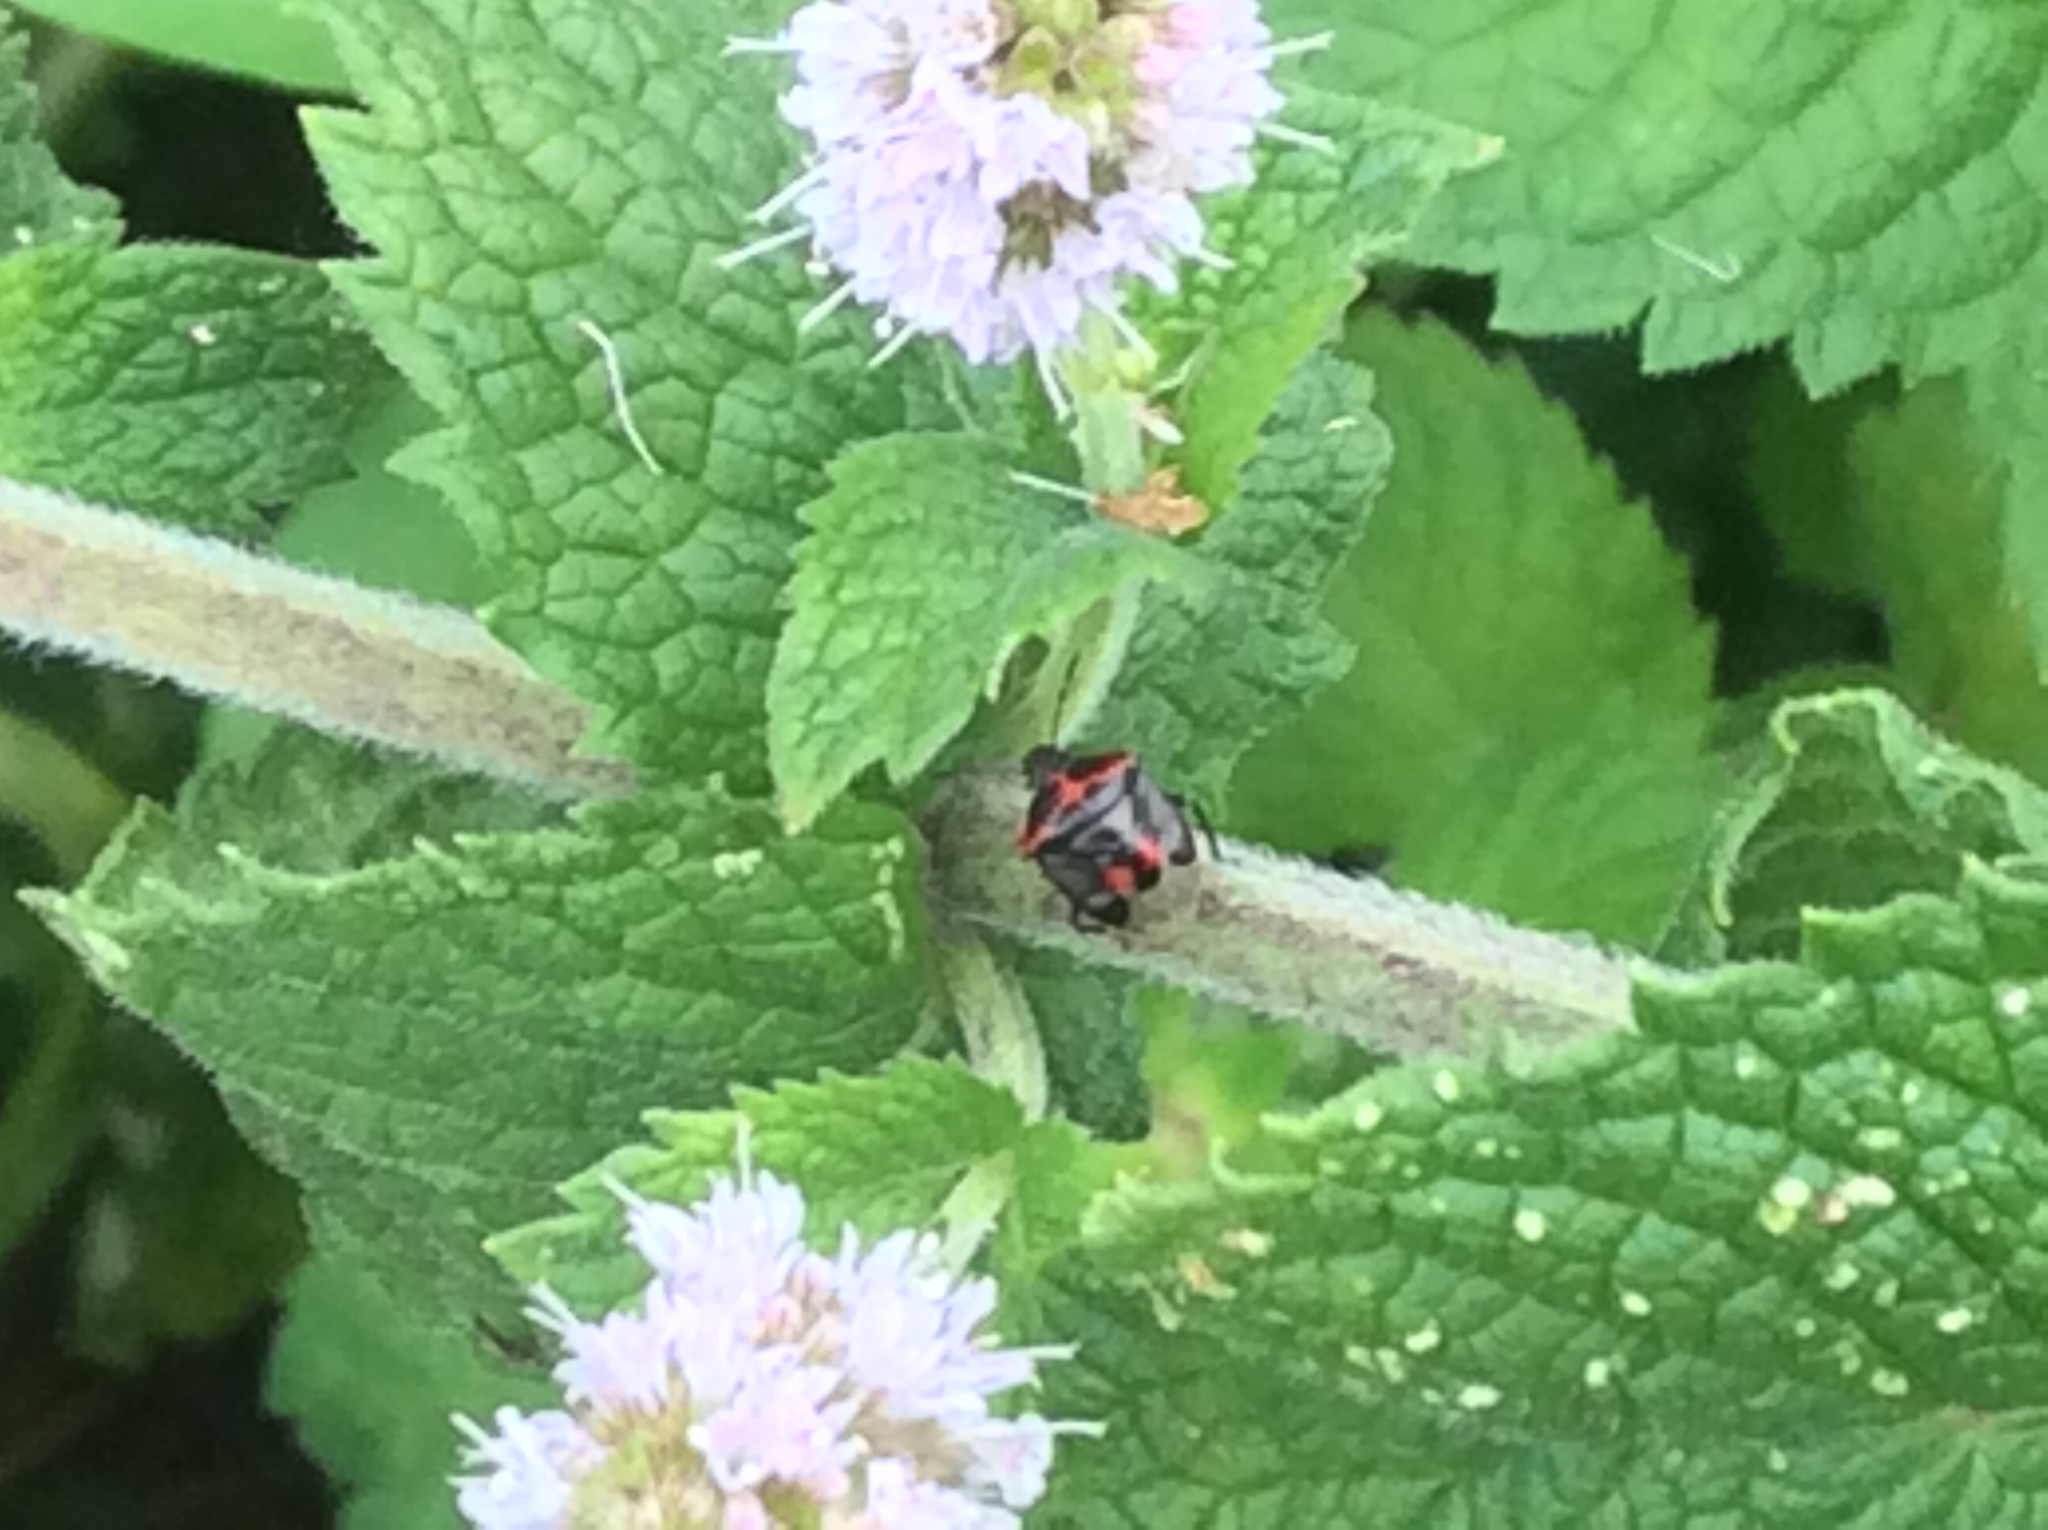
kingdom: Animalia
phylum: Arthropoda
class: Insecta
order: Hemiptera
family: Pentatomidae
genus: Cosmopepla
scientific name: Cosmopepla lintneriana
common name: Twice-stabbed stink bug
